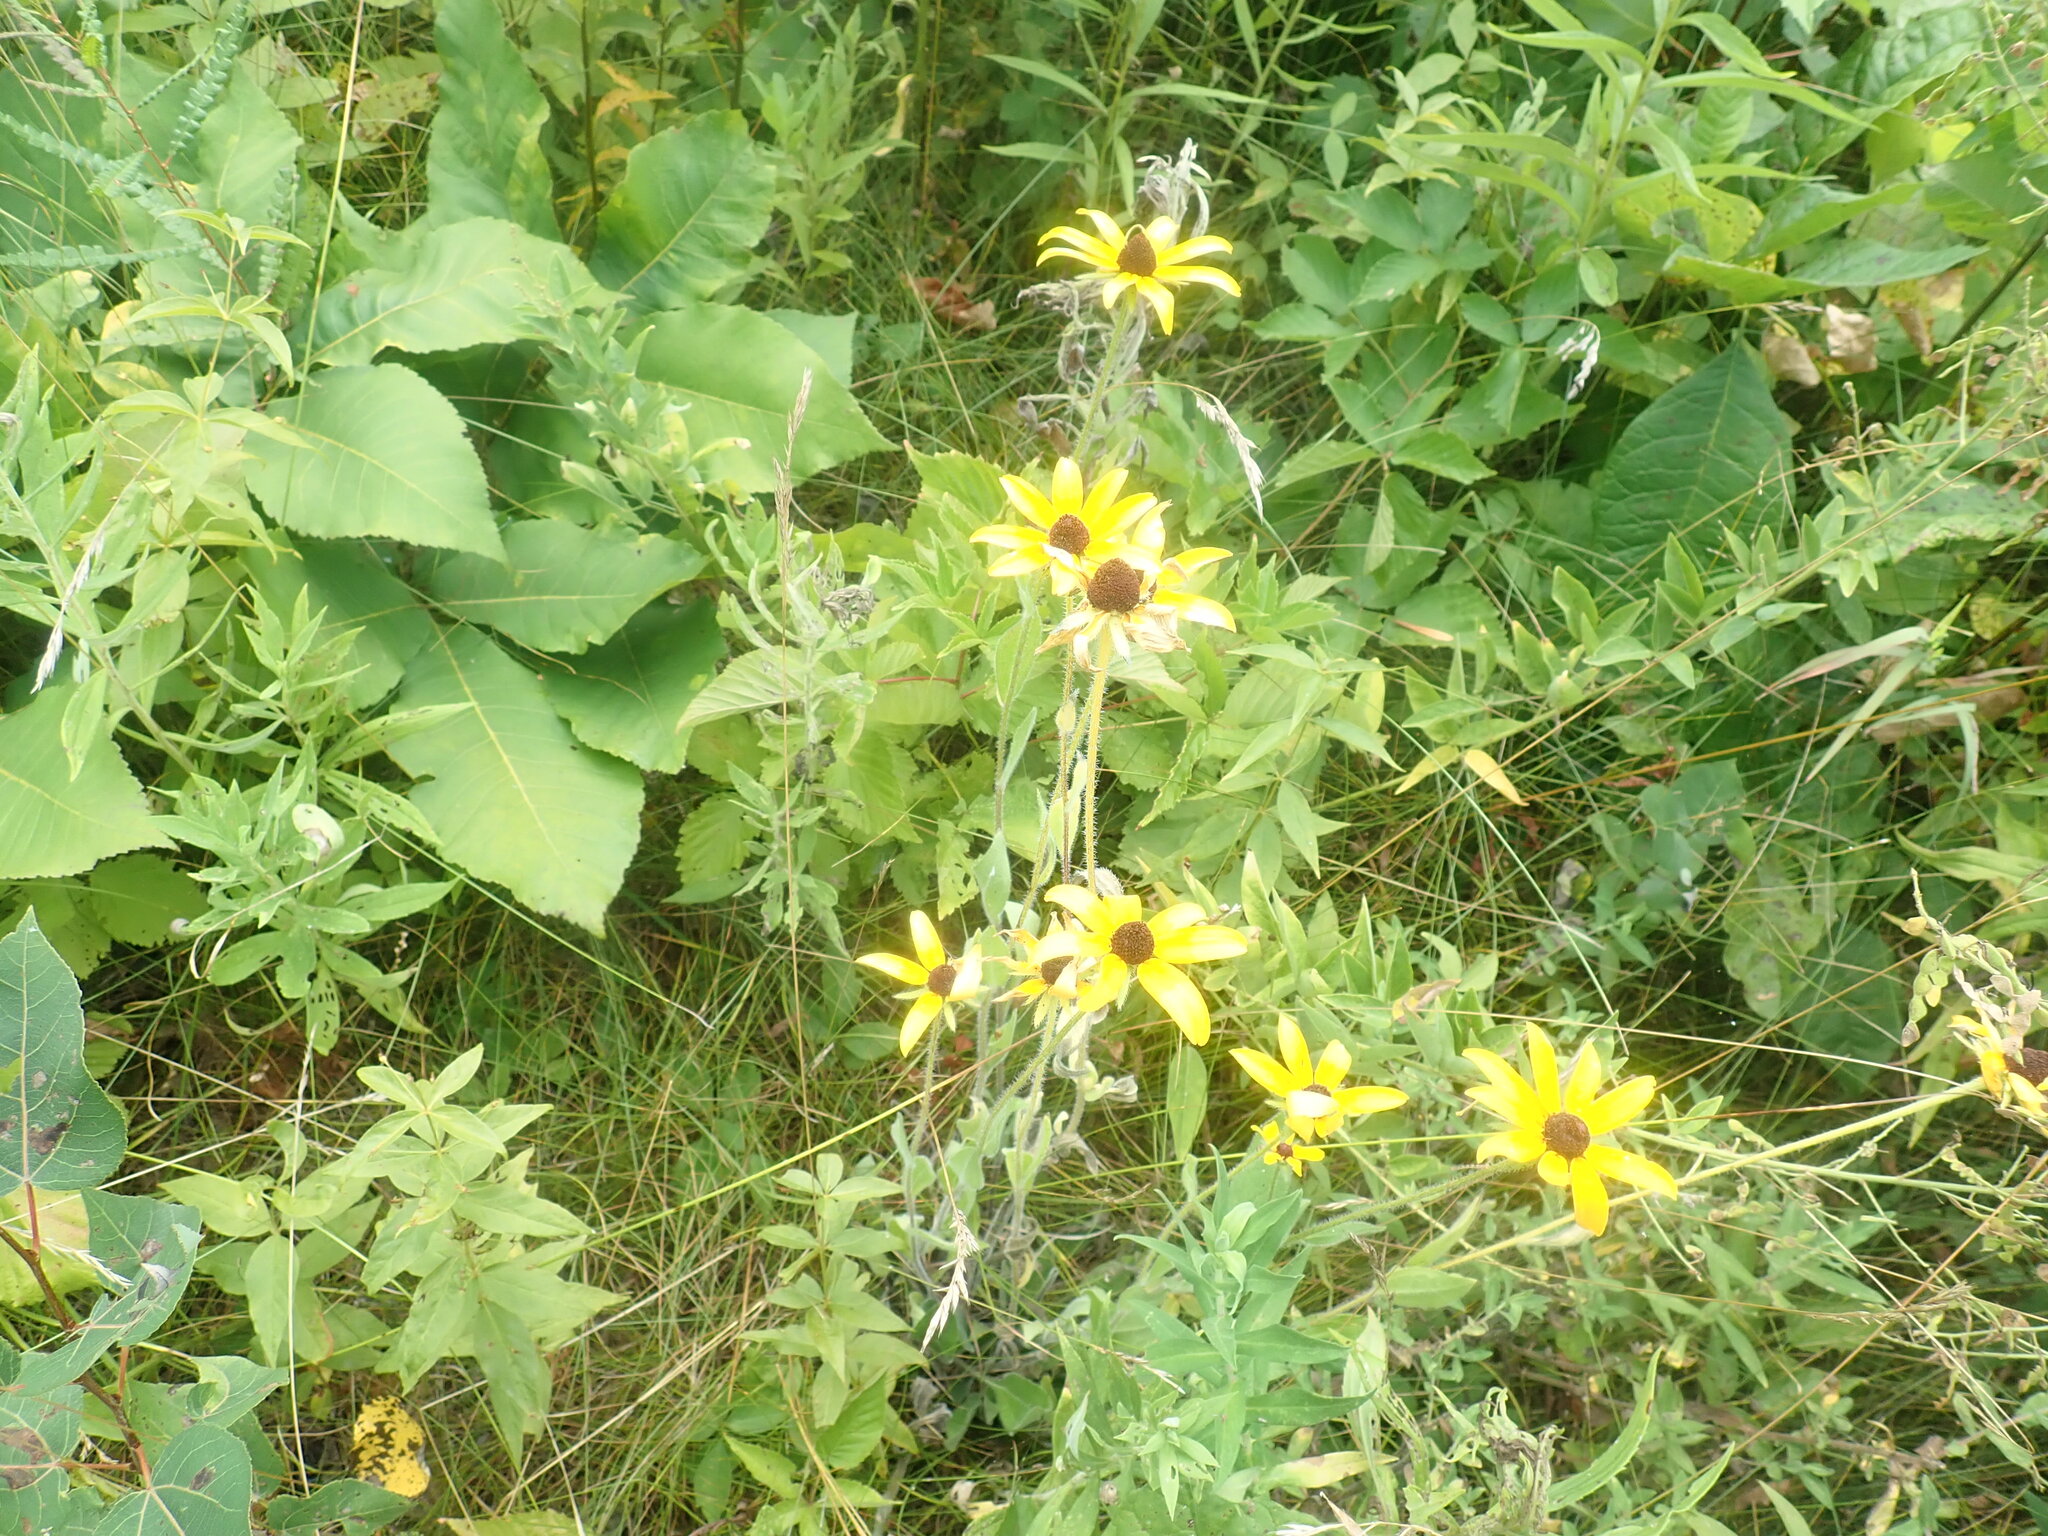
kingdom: Plantae
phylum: Tracheophyta
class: Magnoliopsida
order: Asterales
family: Asteraceae
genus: Rudbeckia
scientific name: Rudbeckia hirta
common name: Black-eyed-susan
